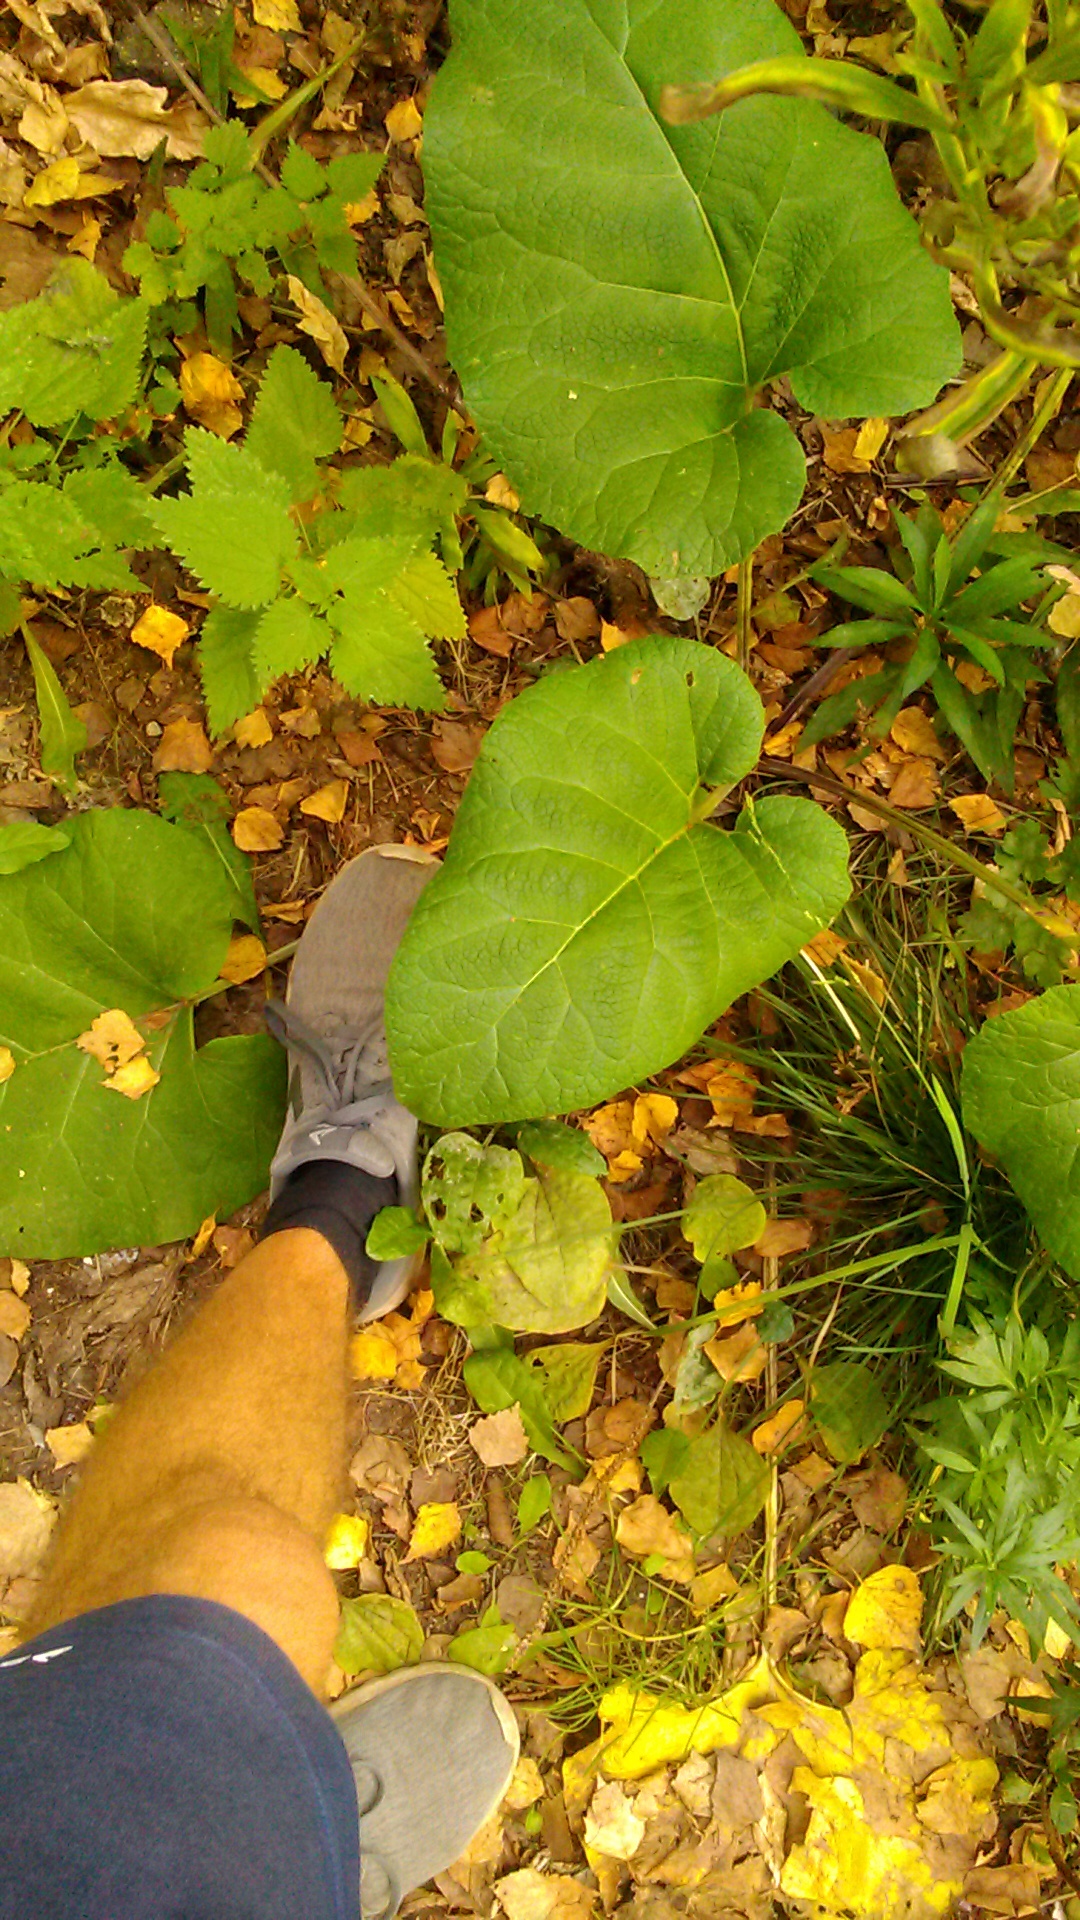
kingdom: Plantae
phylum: Tracheophyta
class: Magnoliopsida
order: Asterales
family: Asteraceae
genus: Arctium
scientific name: Arctium
